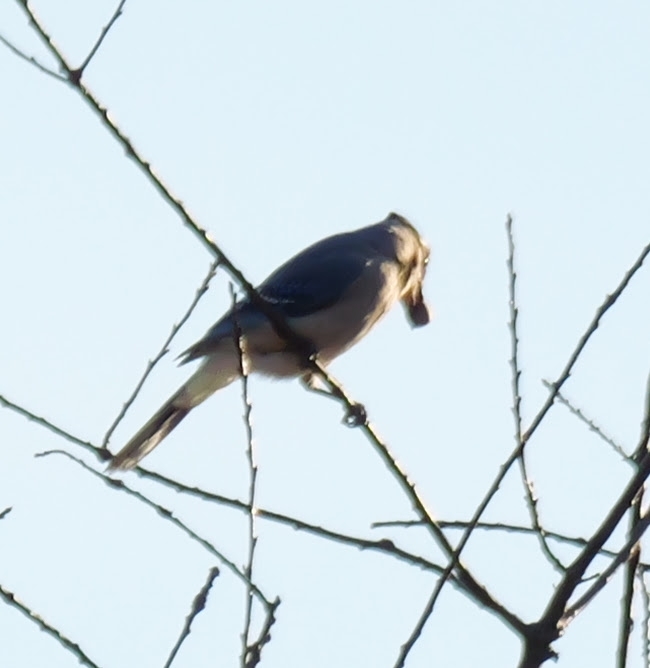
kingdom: Animalia
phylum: Chordata
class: Aves
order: Passeriformes
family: Corvidae
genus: Cyanocitta
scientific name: Cyanocitta cristata
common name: Blue jay
